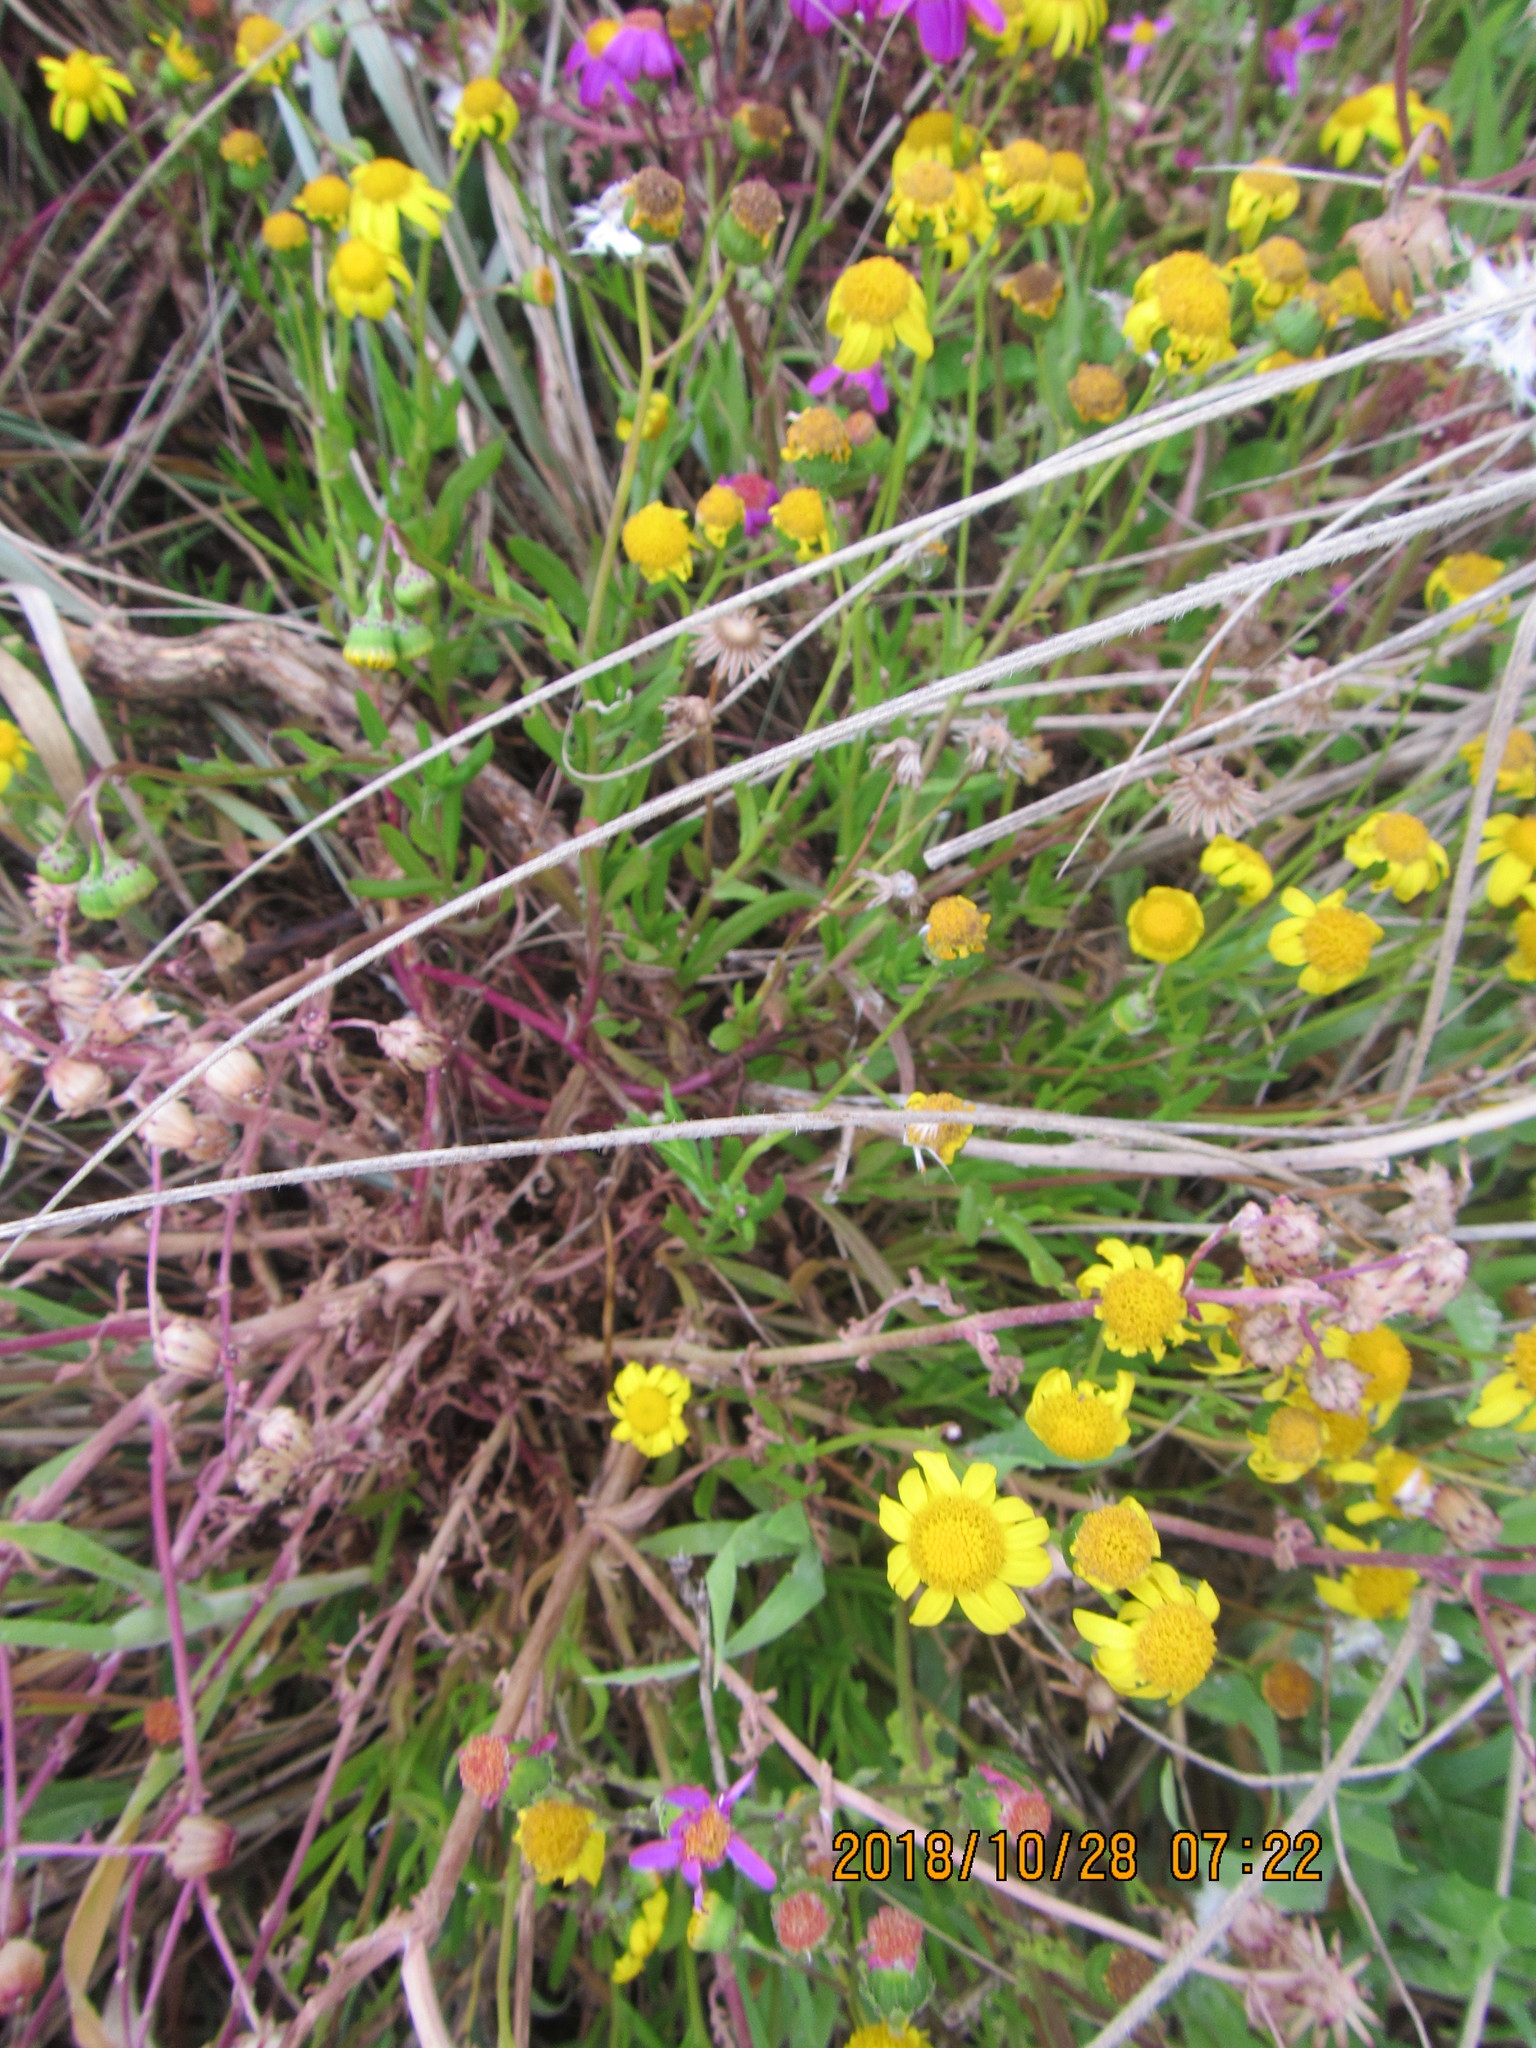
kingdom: Plantae
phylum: Tracheophyta
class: Magnoliopsida
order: Asterales
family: Asteraceae
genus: Senecio
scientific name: Senecio skirrhodon
